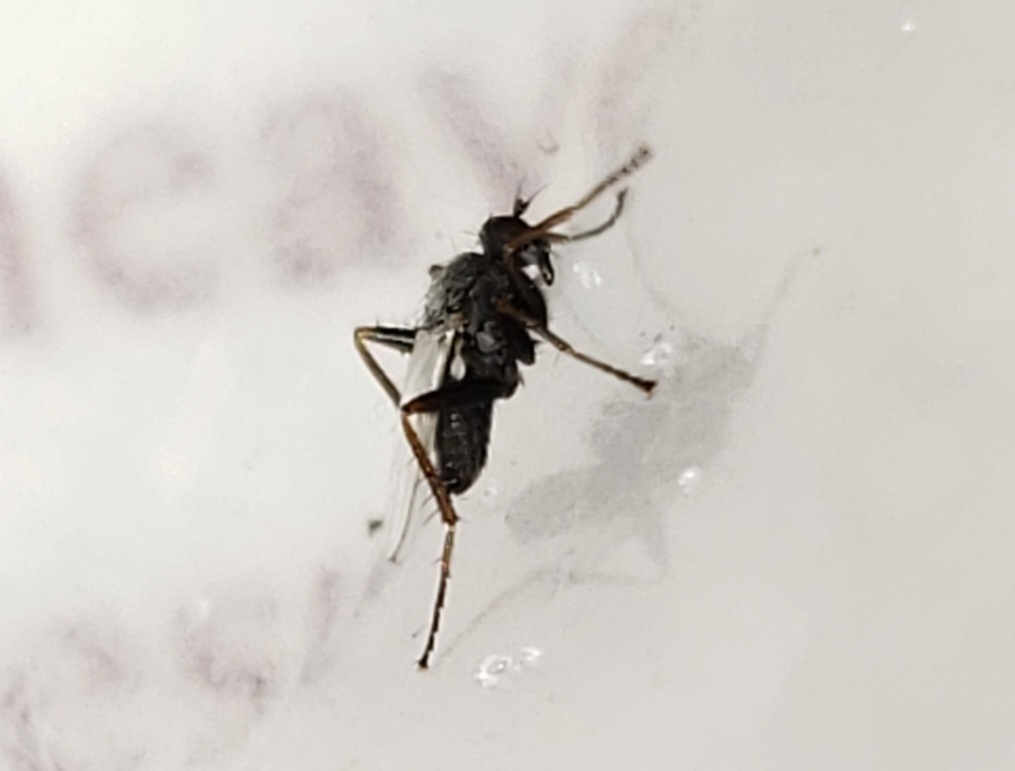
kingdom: Animalia
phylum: Arthropoda
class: Insecta
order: Diptera
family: Hybotidae
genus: Chersodromia
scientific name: Chersodromia inusitata
